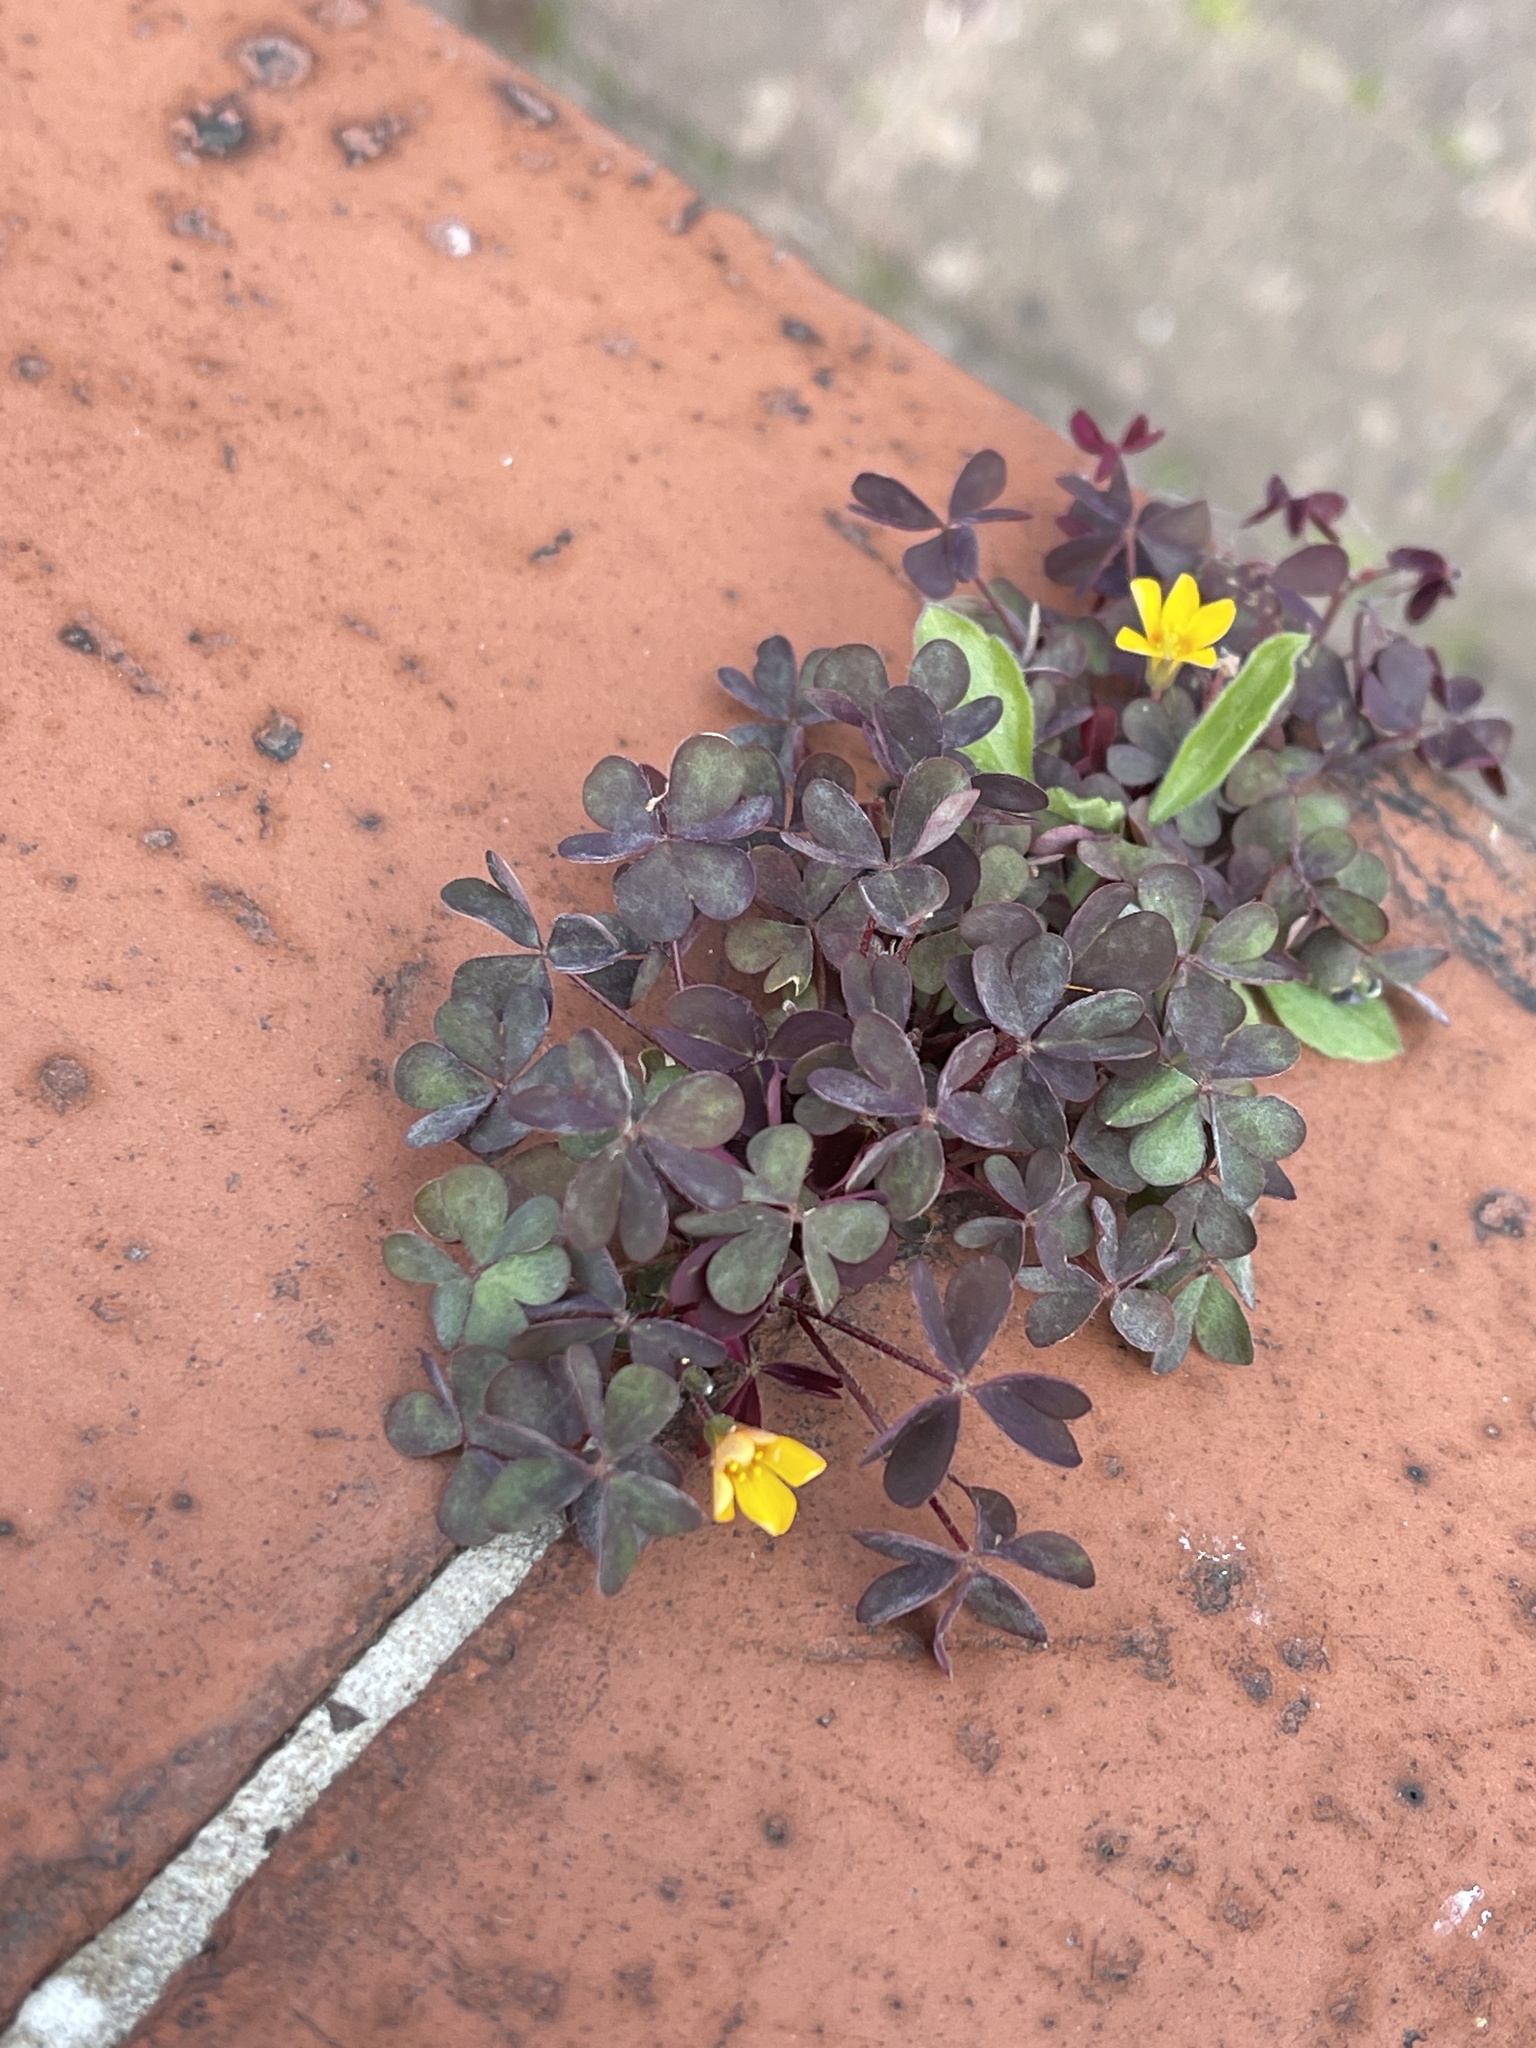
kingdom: Plantae
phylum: Tracheophyta
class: Magnoliopsida
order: Oxalidales
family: Oxalidaceae
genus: Oxalis
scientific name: Oxalis corniculata
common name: Procumbent yellow-sorrel
